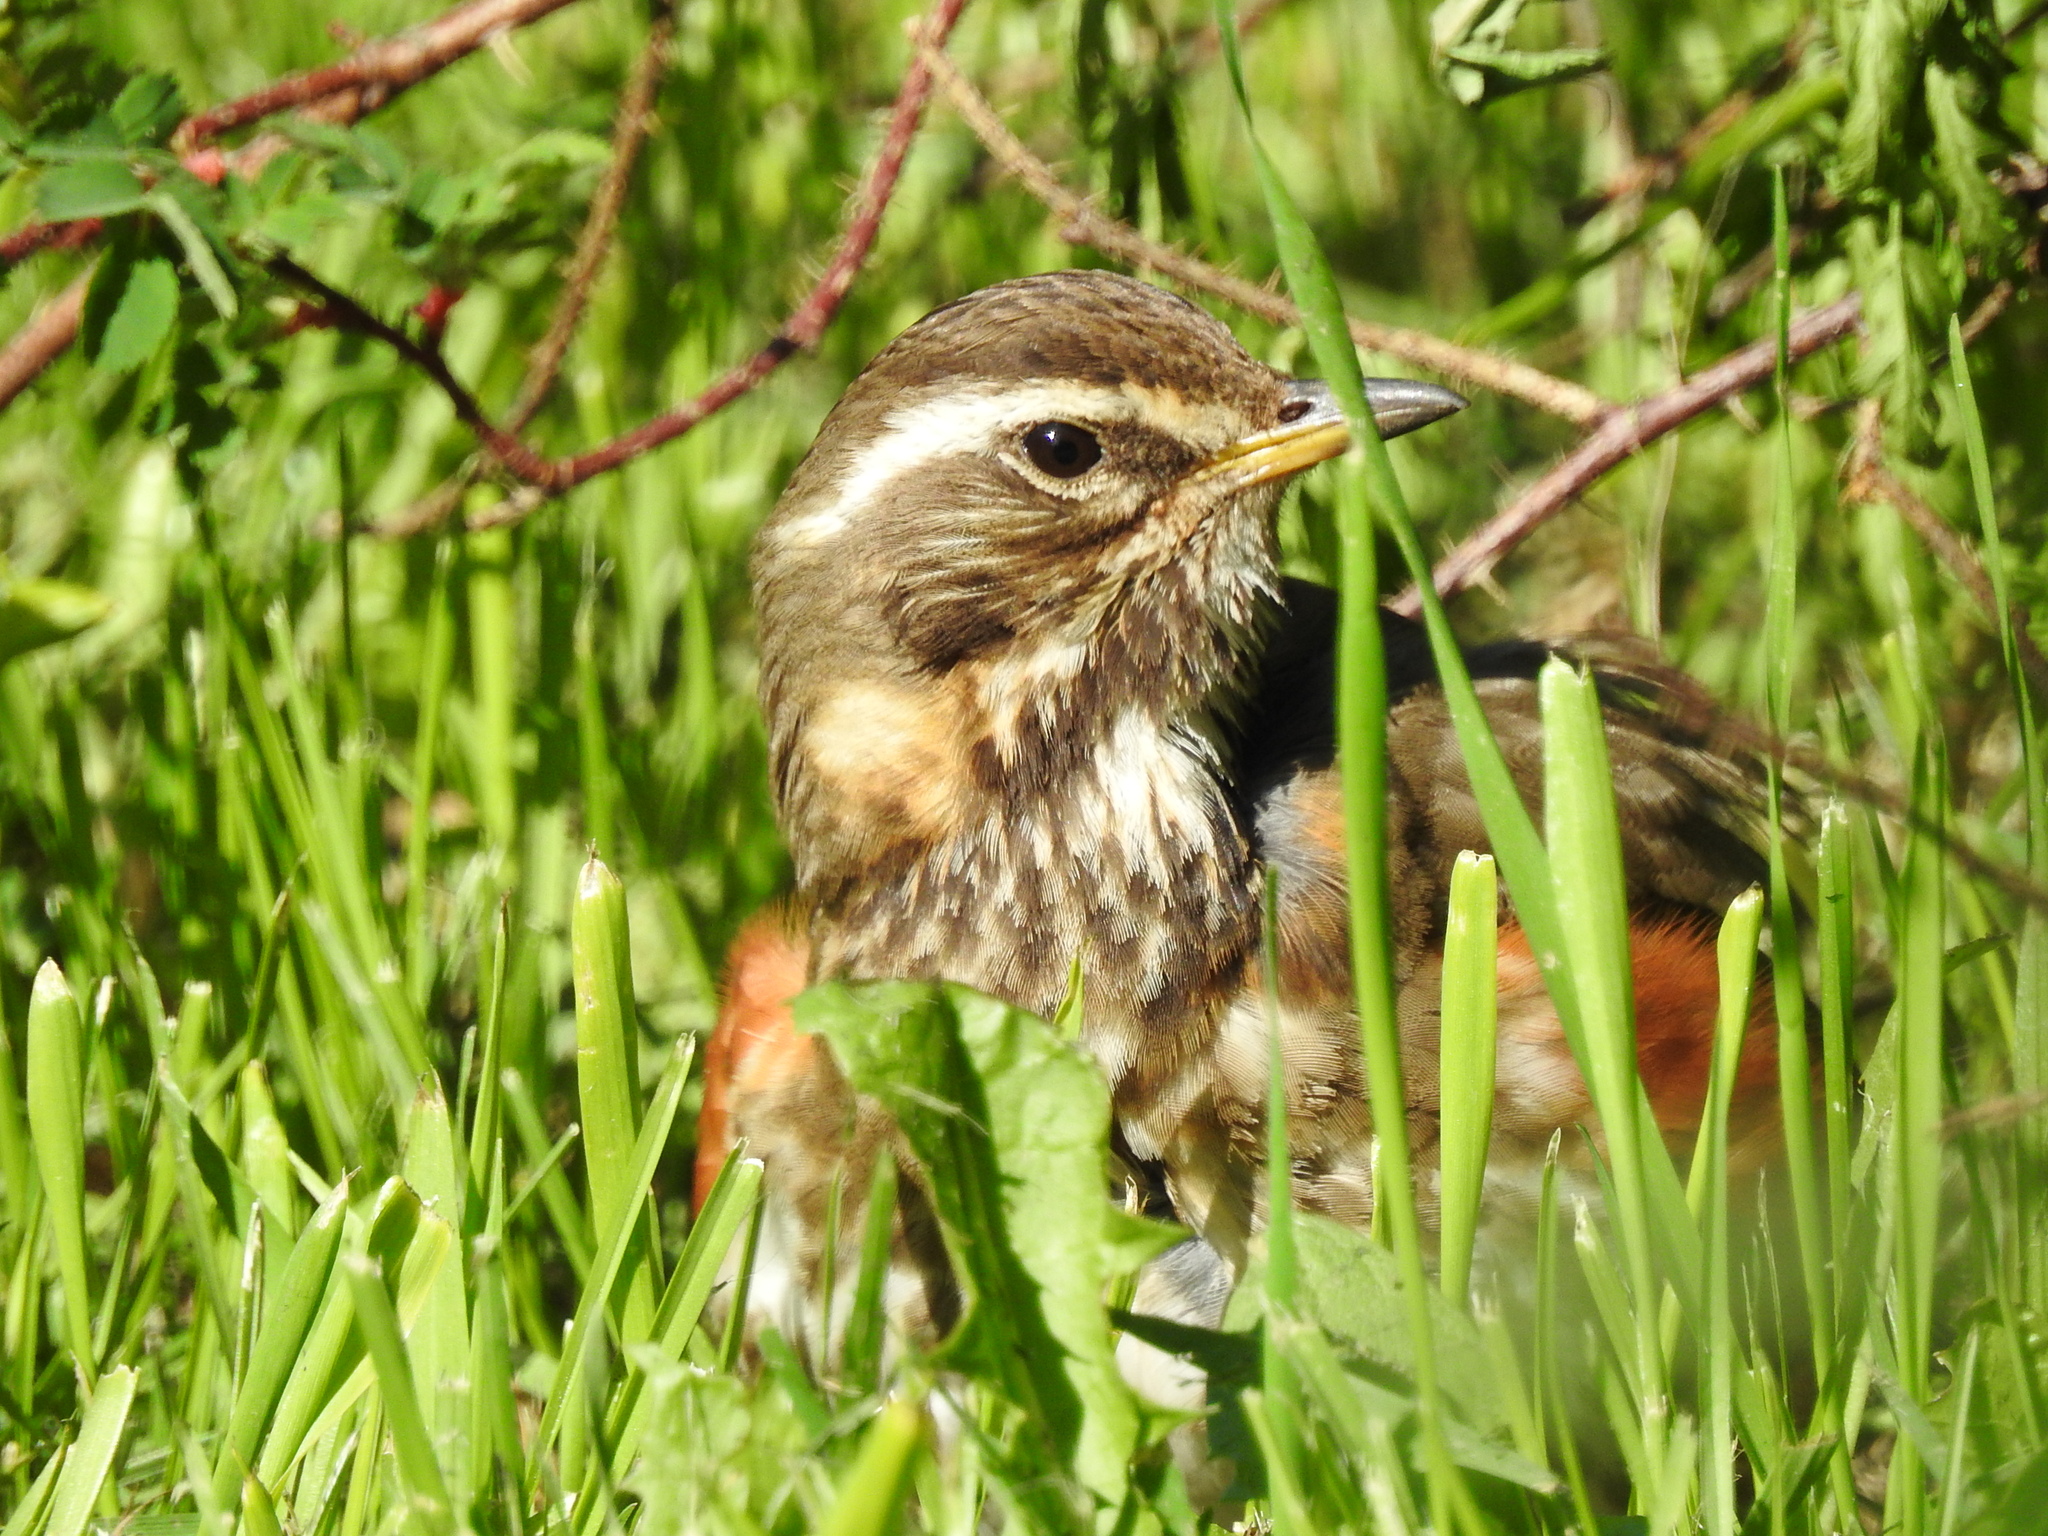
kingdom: Animalia
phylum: Chordata
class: Aves
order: Passeriformes
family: Turdidae
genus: Turdus
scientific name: Turdus iliacus
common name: Redwing
